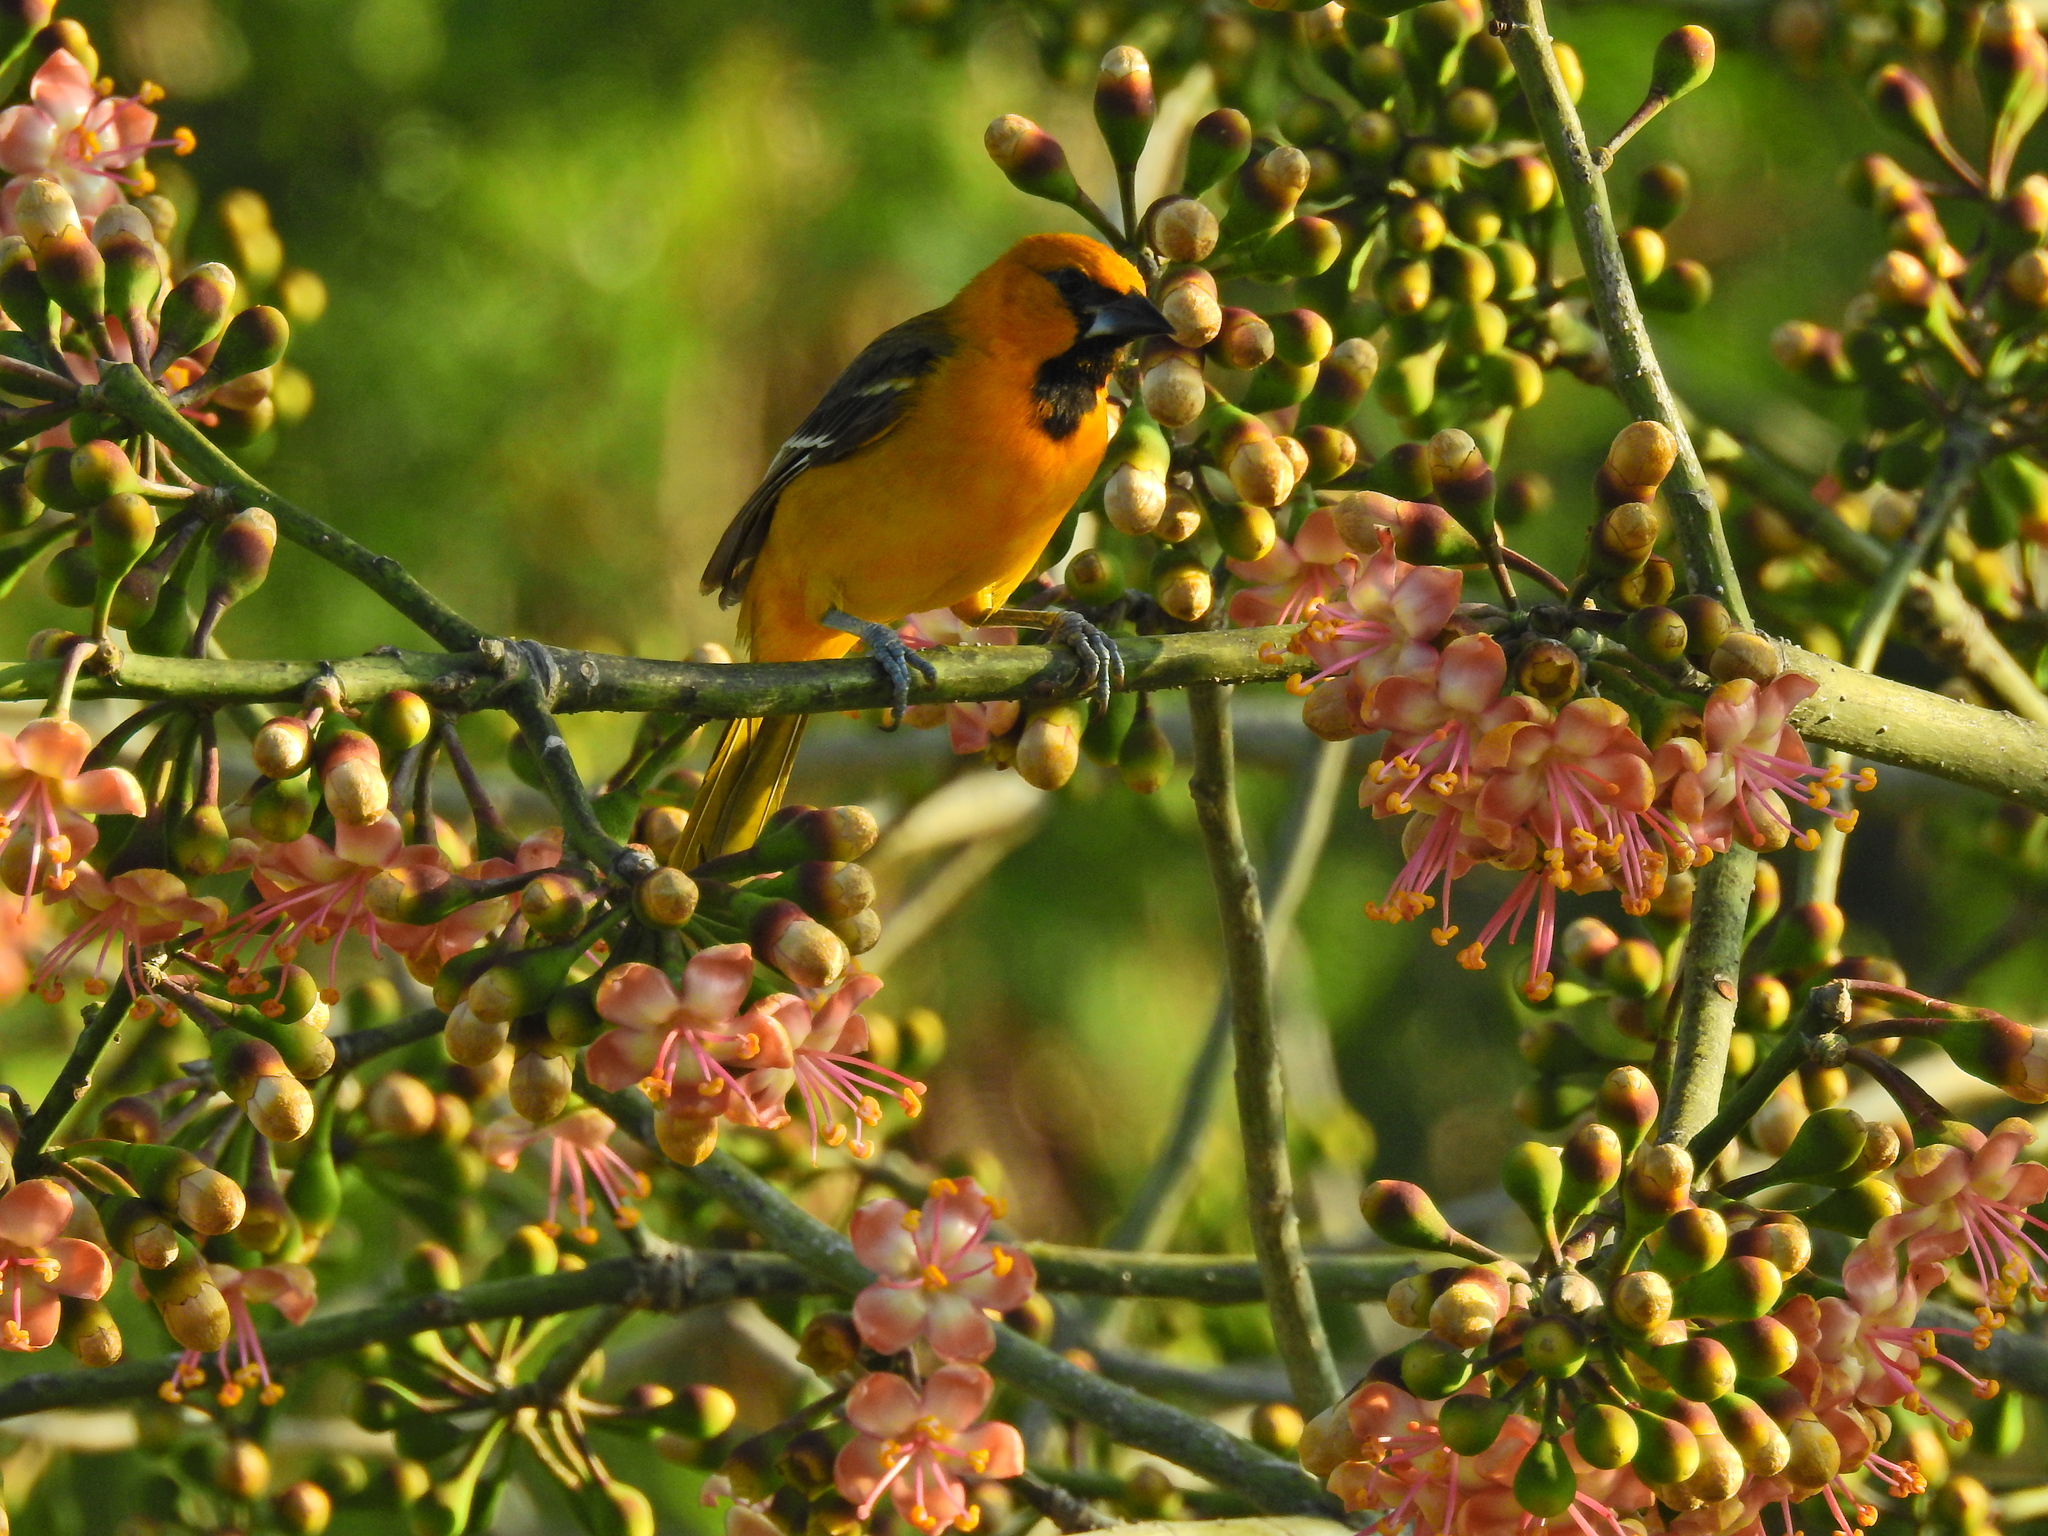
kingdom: Animalia
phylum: Chordata
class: Aves
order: Passeriformes
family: Icteridae
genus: Icterus
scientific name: Icterus auratus
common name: Orange oriole
